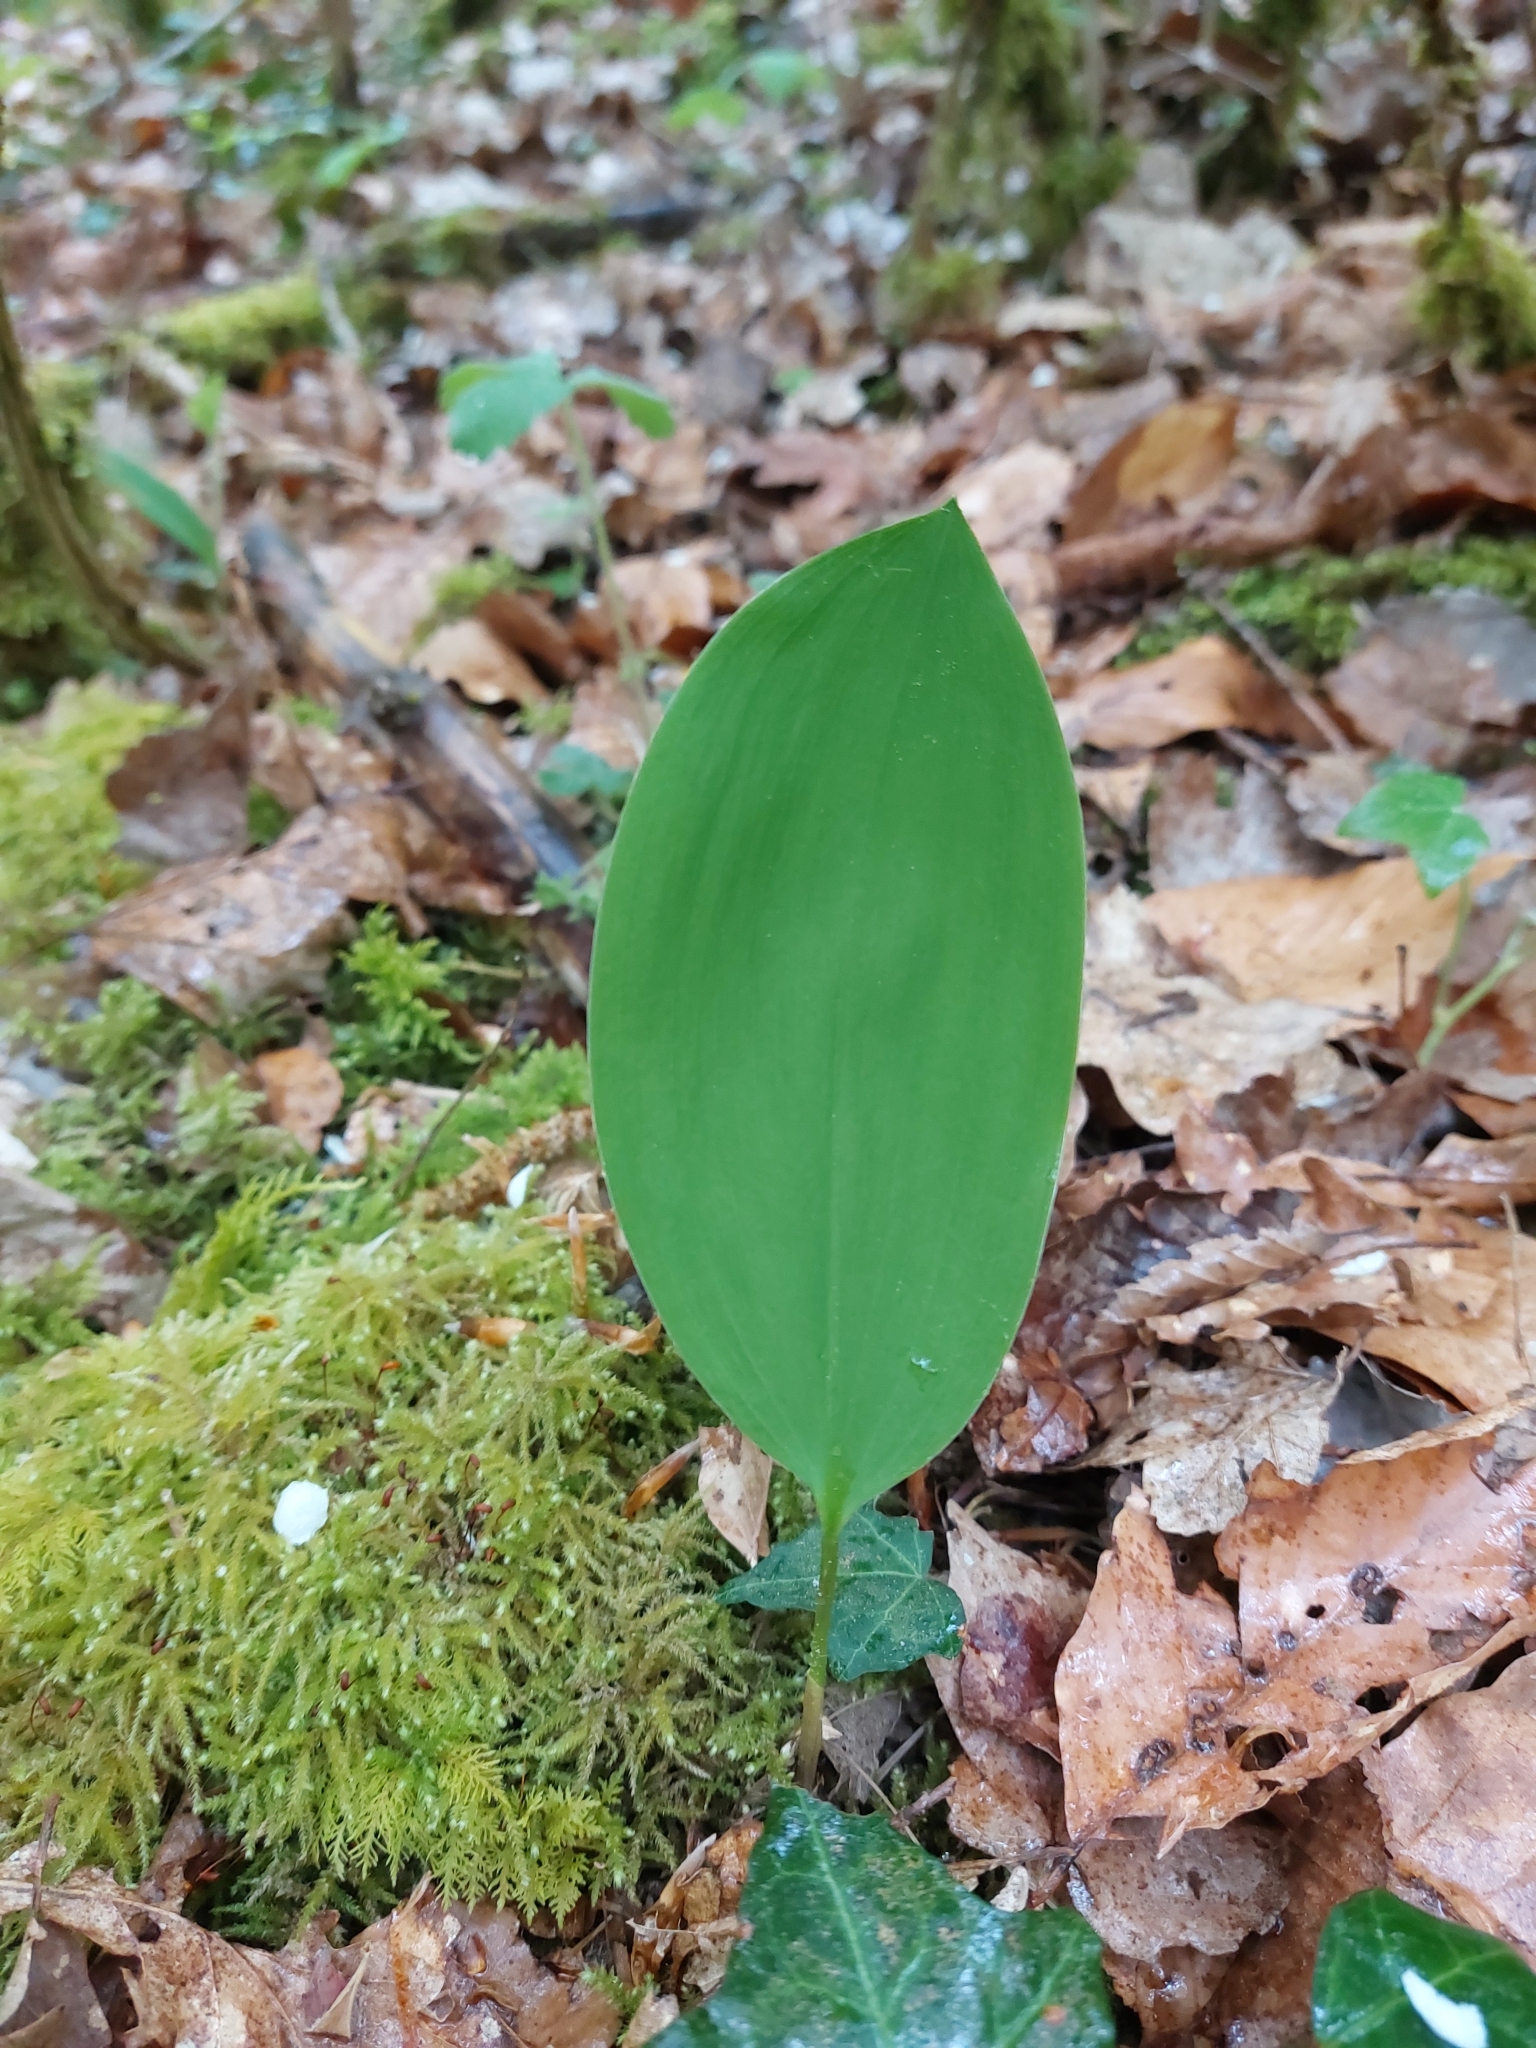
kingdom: Plantae
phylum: Tracheophyta
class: Liliopsida
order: Asparagales
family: Asparagaceae
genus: Convallaria
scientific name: Convallaria majalis
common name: Lily-of-the-valley
